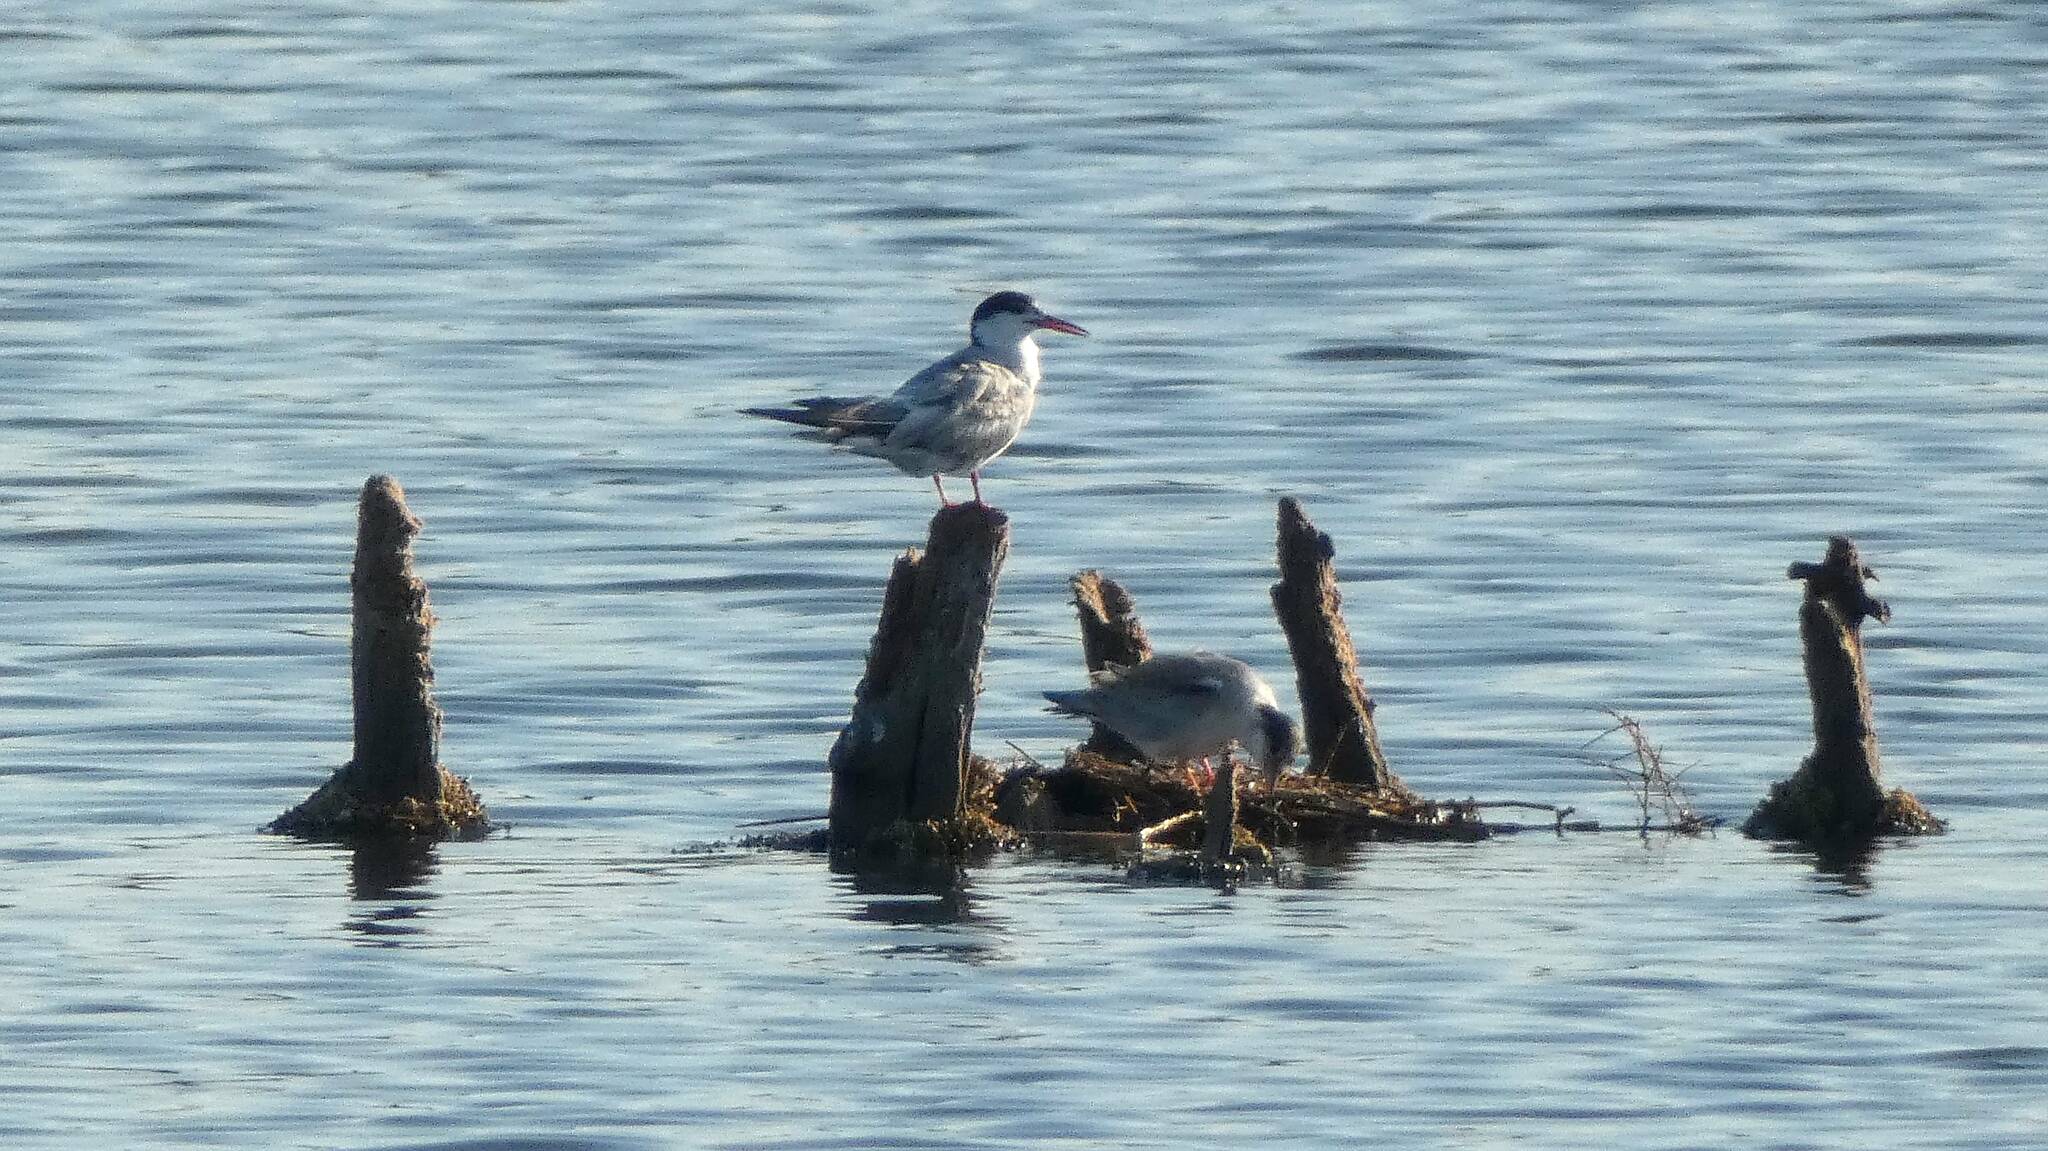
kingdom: Animalia
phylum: Chordata
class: Aves
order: Charadriiformes
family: Laridae
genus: Sterna
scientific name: Sterna hirundo
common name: Common tern
